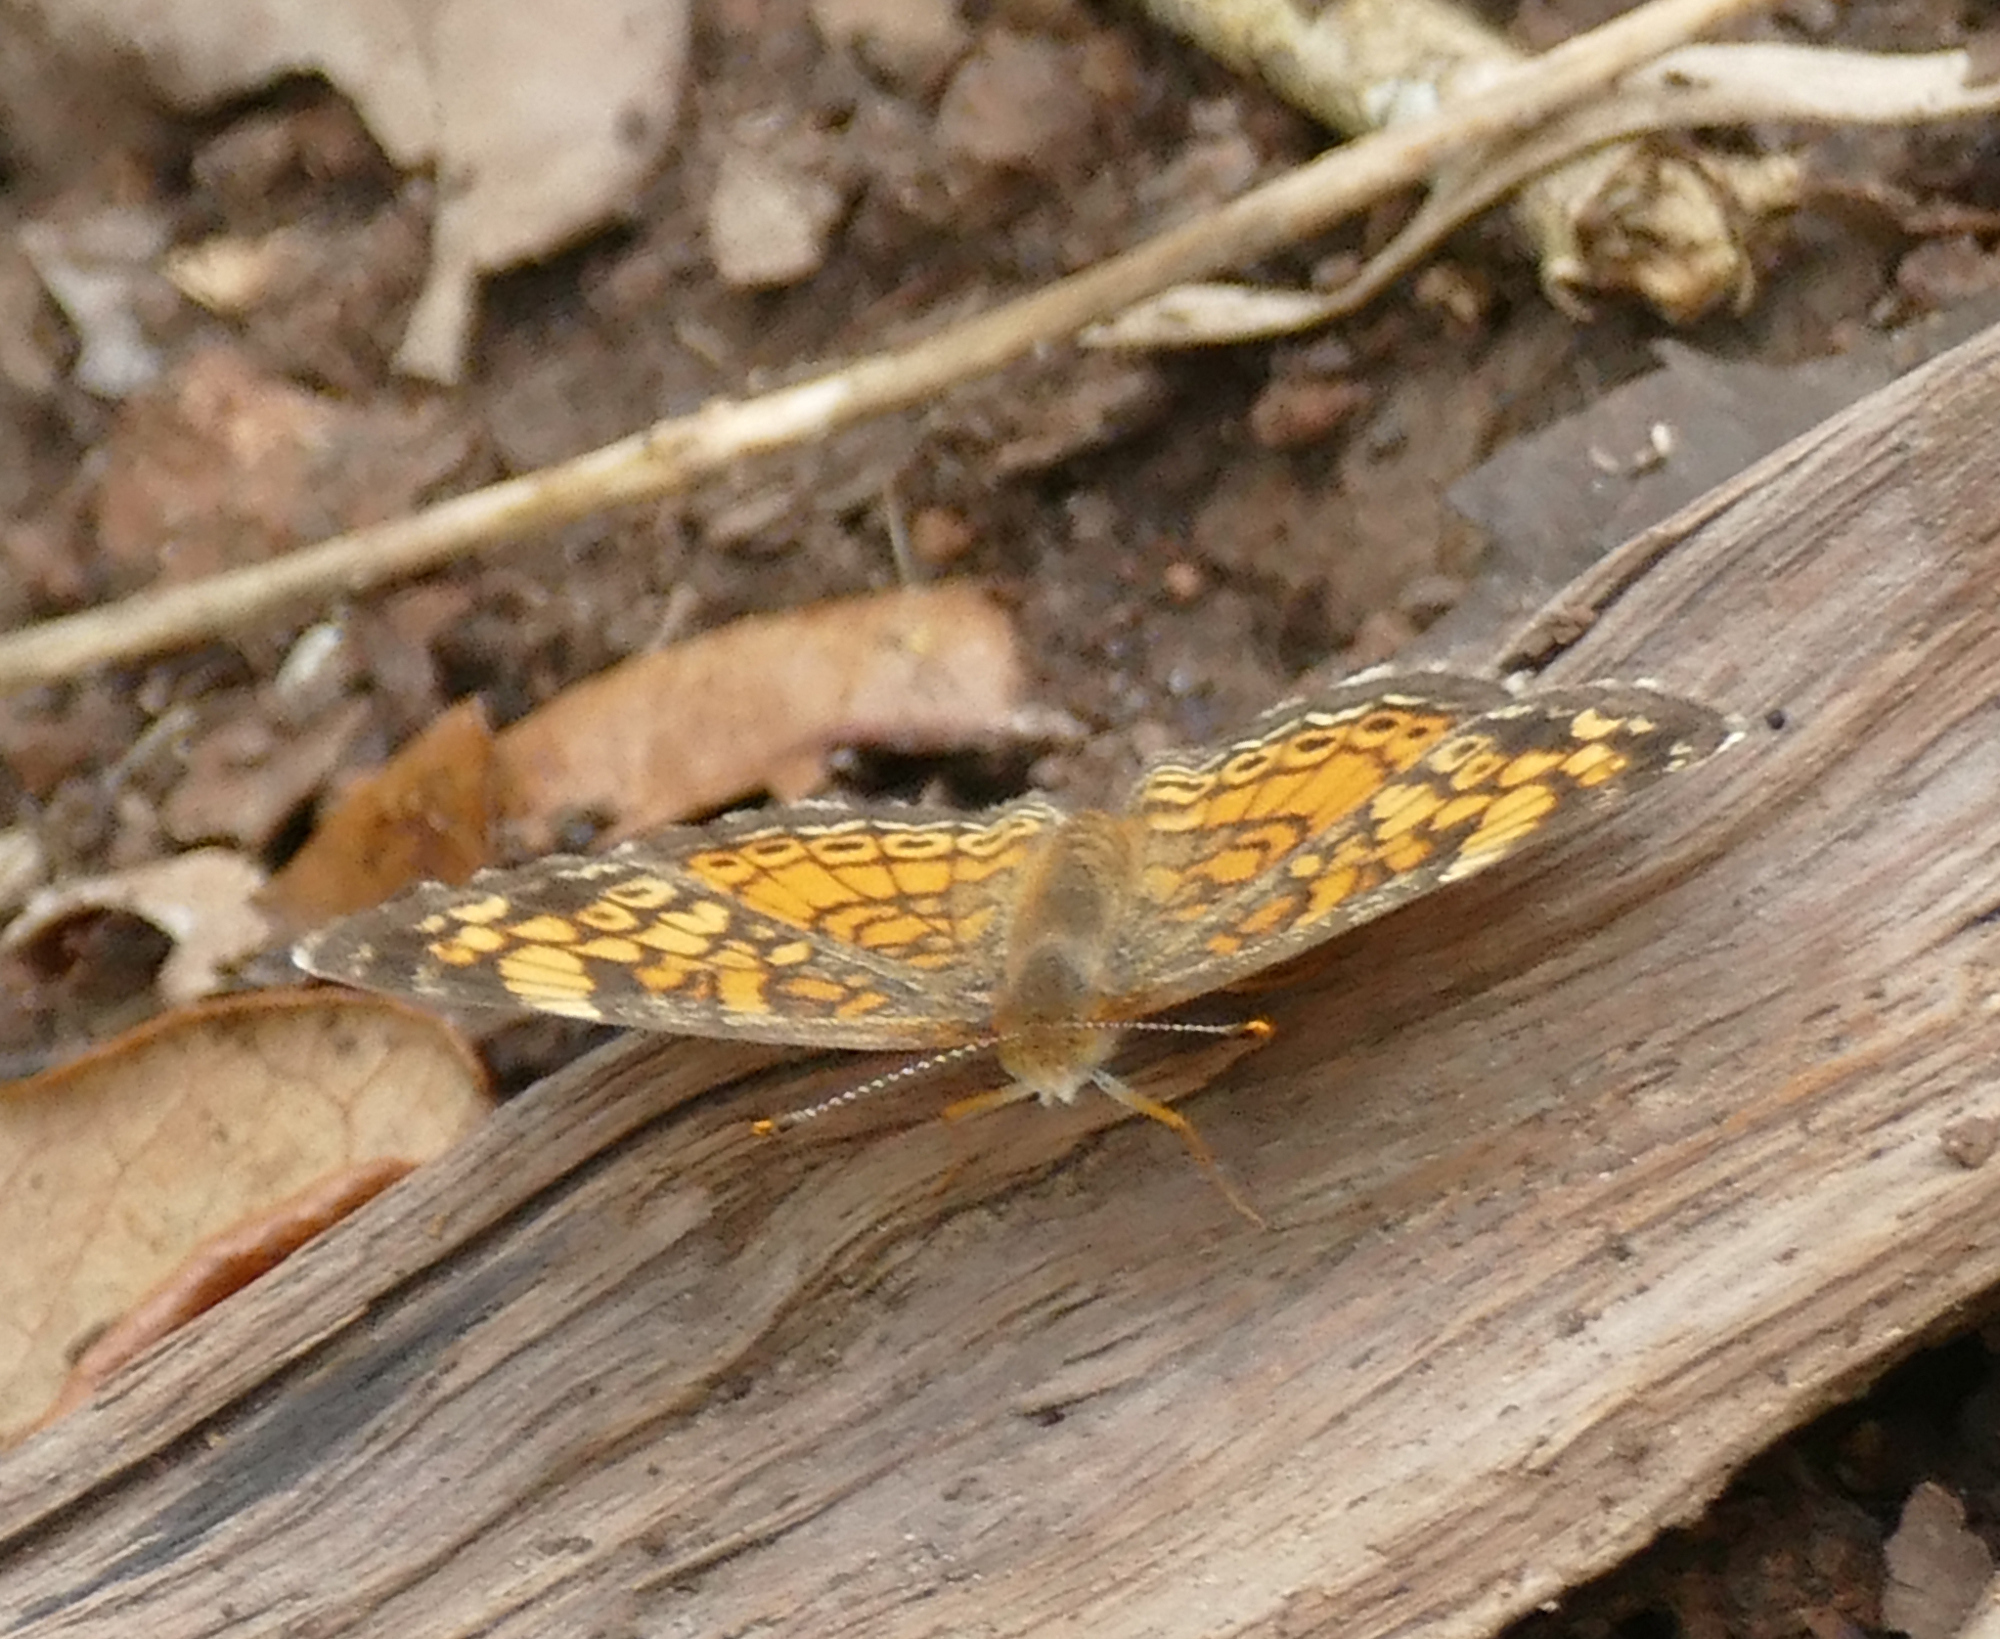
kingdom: Animalia
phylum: Arthropoda
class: Insecta
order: Lepidoptera
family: Nymphalidae
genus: Phyciodes
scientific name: Phyciodes tharos
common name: Pearl crescent
